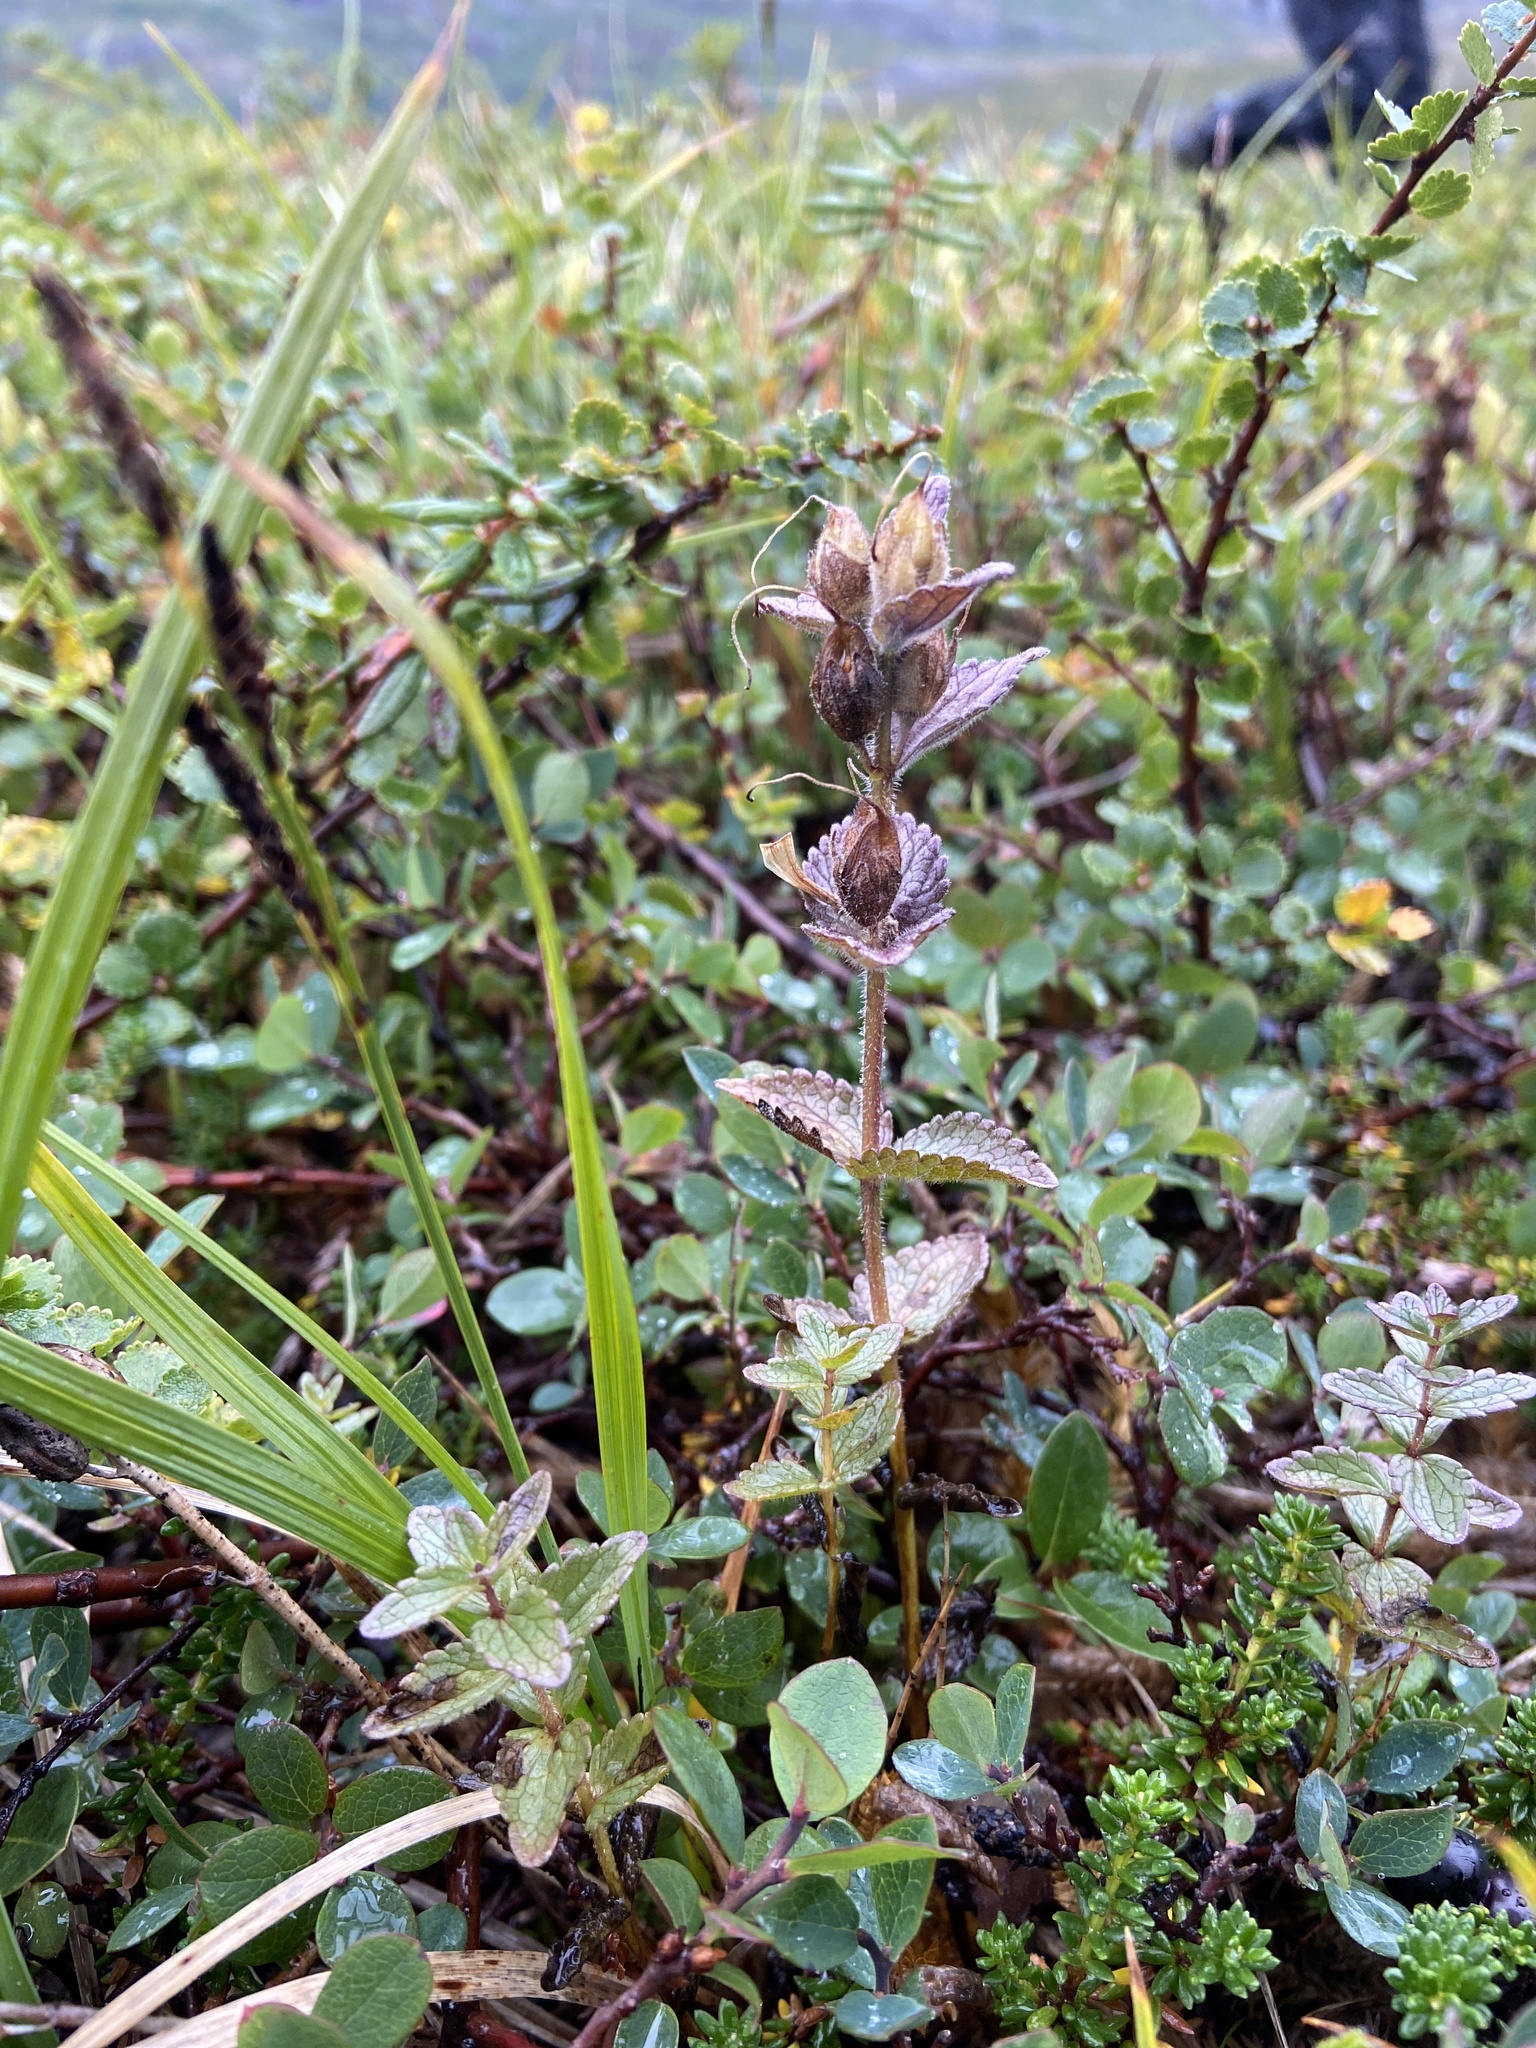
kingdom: Plantae
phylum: Tracheophyta
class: Magnoliopsida
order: Lamiales
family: Orobanchaceae
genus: Bartsia
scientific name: Bartsia alpina
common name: Alpine bartsia
